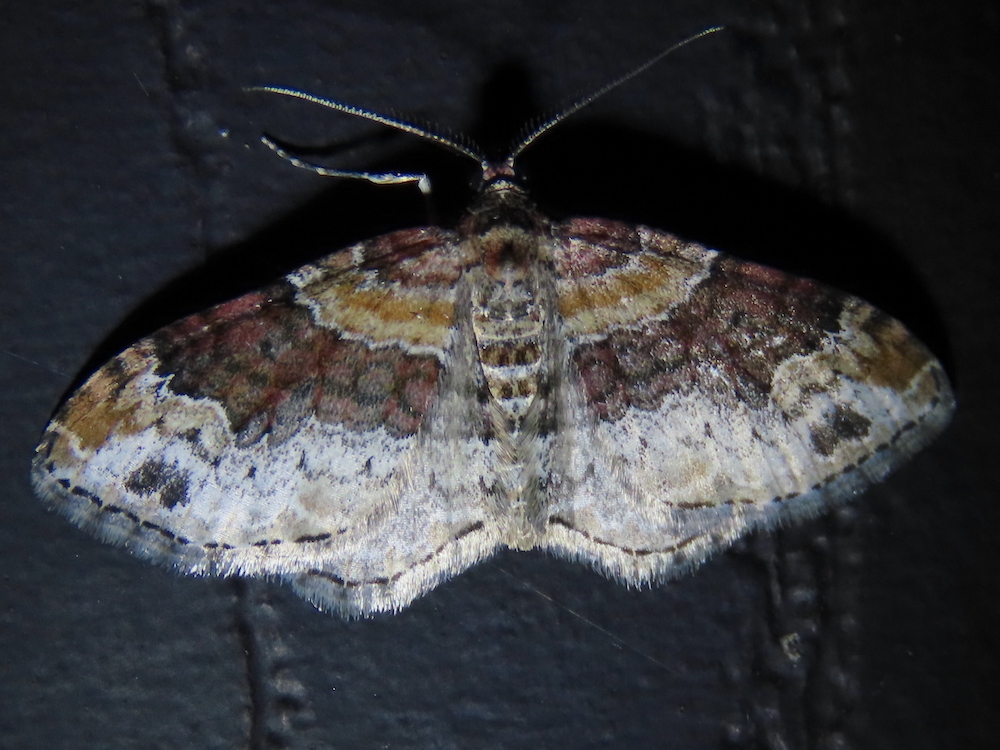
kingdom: Animalia
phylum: Arthropoda
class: Insecta
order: Lepidoptera
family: Geometridae
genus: Xanthorhoe
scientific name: Xanthorhoe ferrugata
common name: Dark-barred twin-spot carpet
